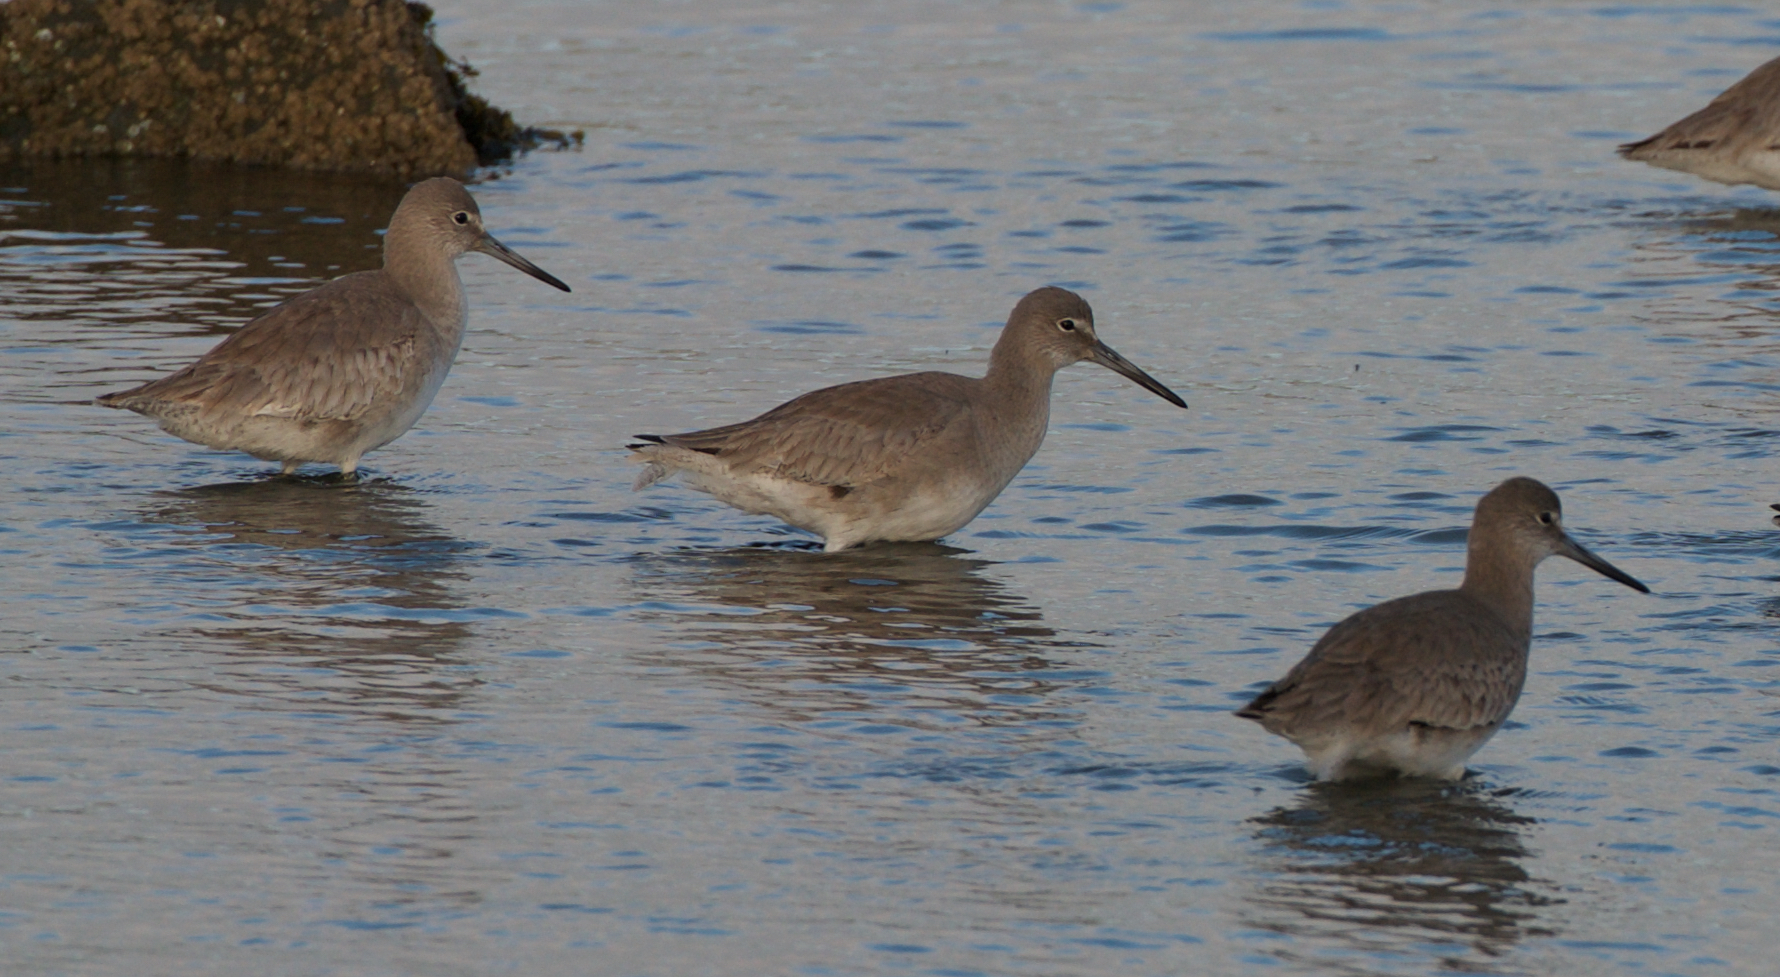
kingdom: Animalia
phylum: Chordata
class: Aves
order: Charadriiformes
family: Scolopacidae
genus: Tringa
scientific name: Tringa semipalmata
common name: Willet
